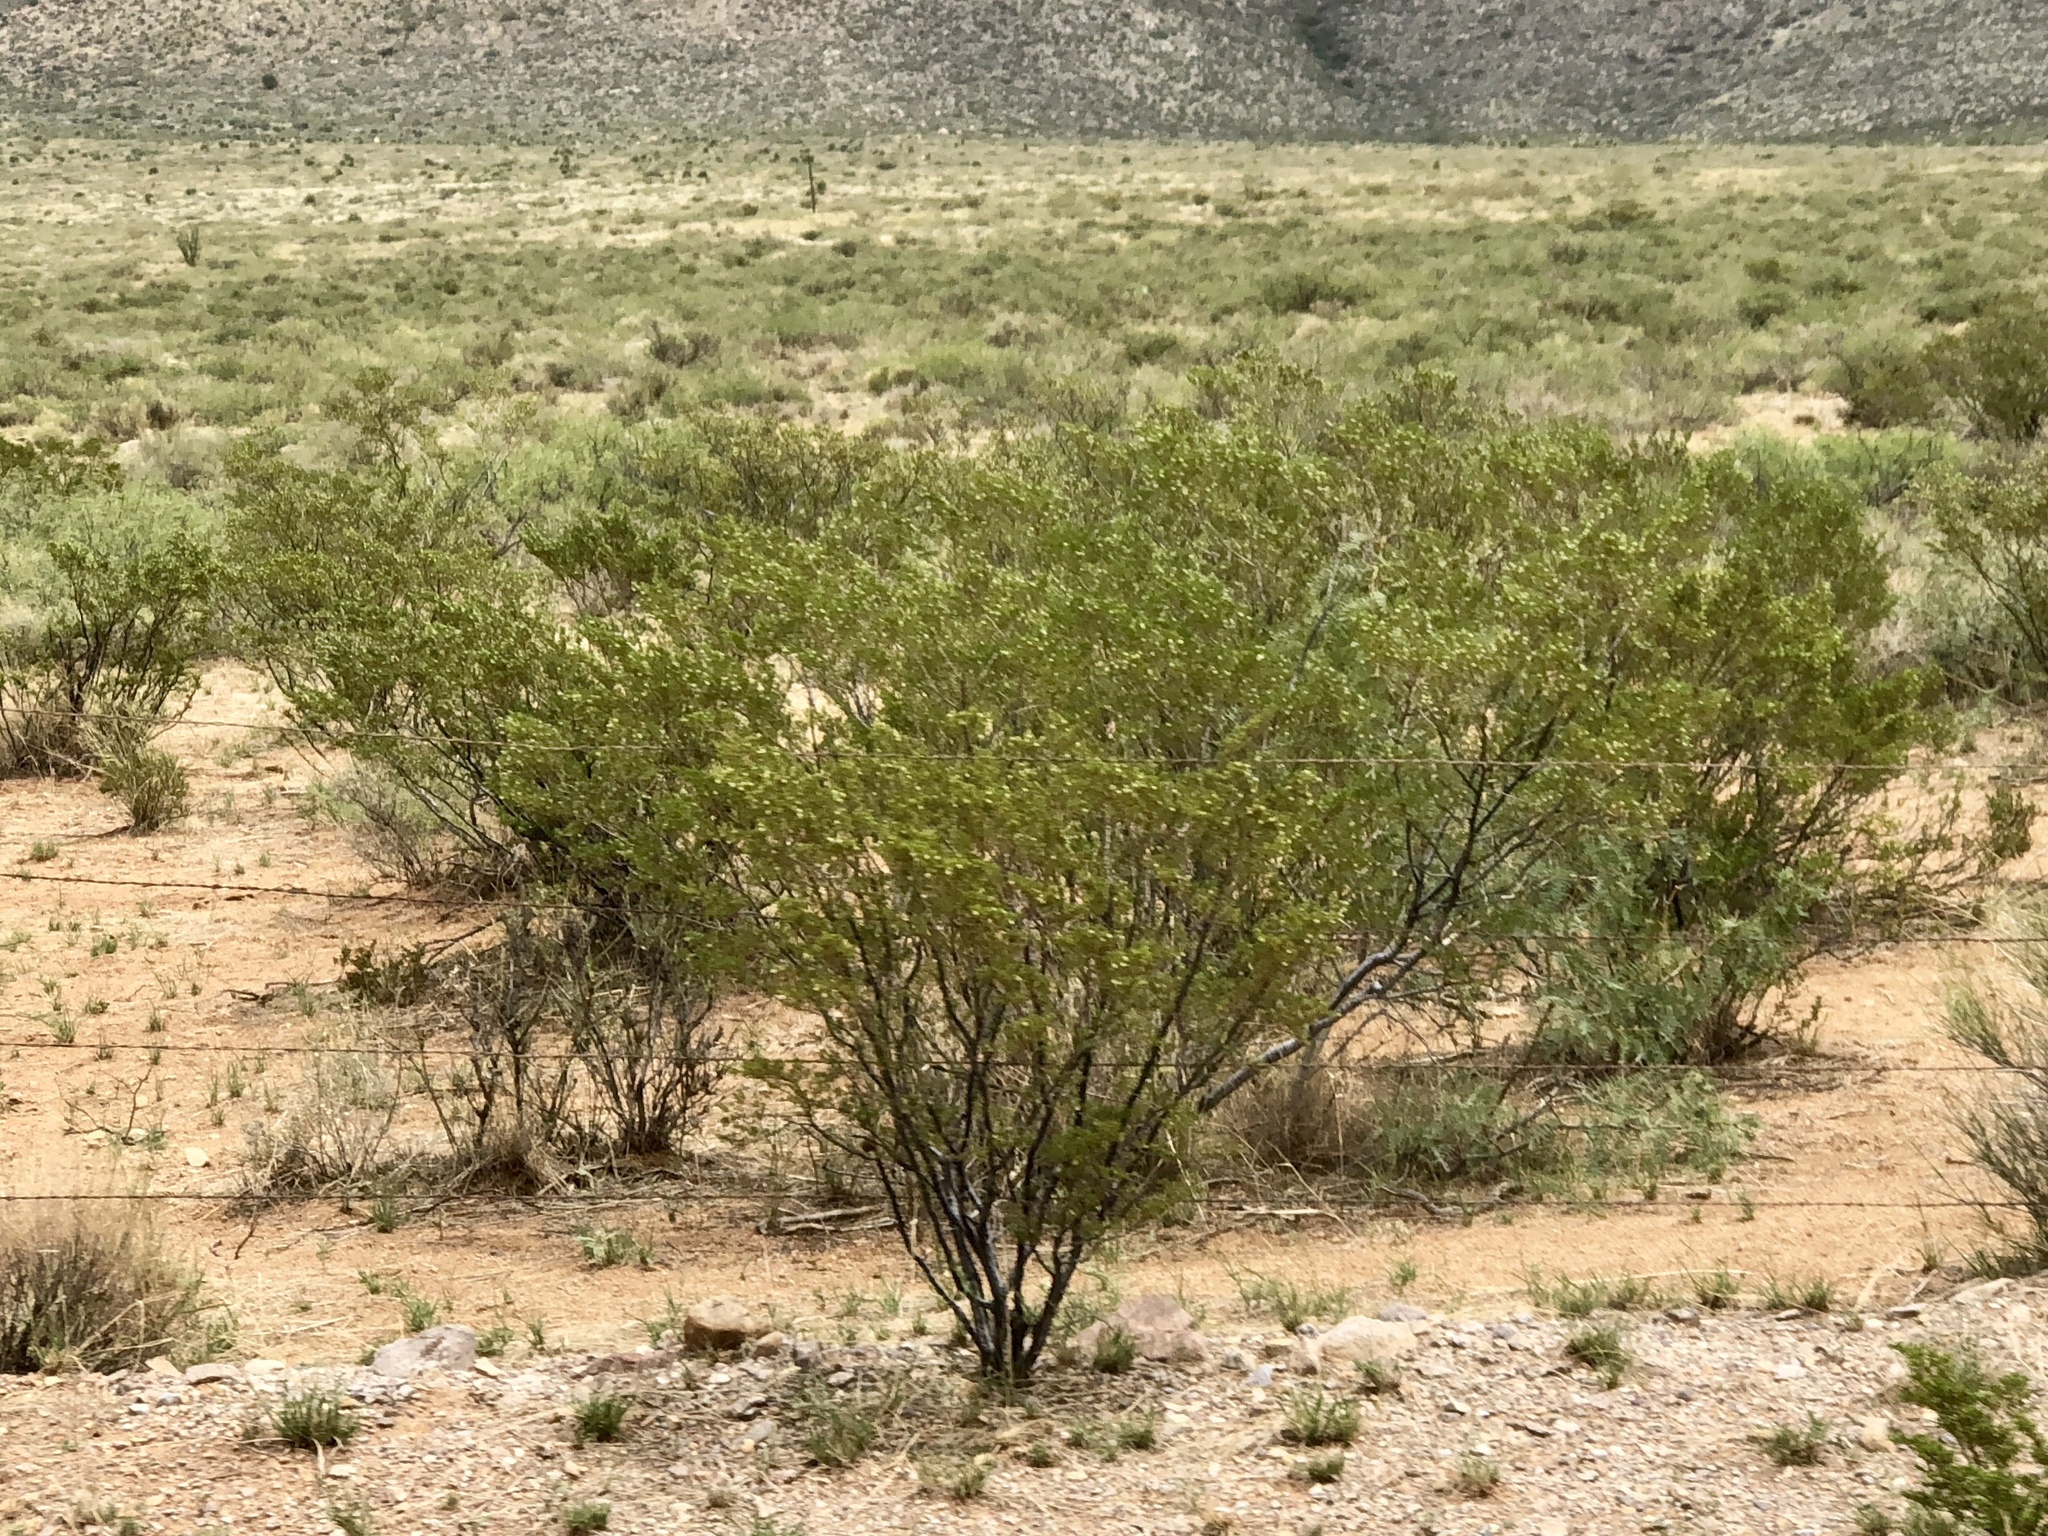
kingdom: Plantae
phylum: Tracheophyta
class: Magnoliopsida
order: Zygophyllales
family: Zygophyllaceae
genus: Larrea
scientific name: Larrea tridentata
